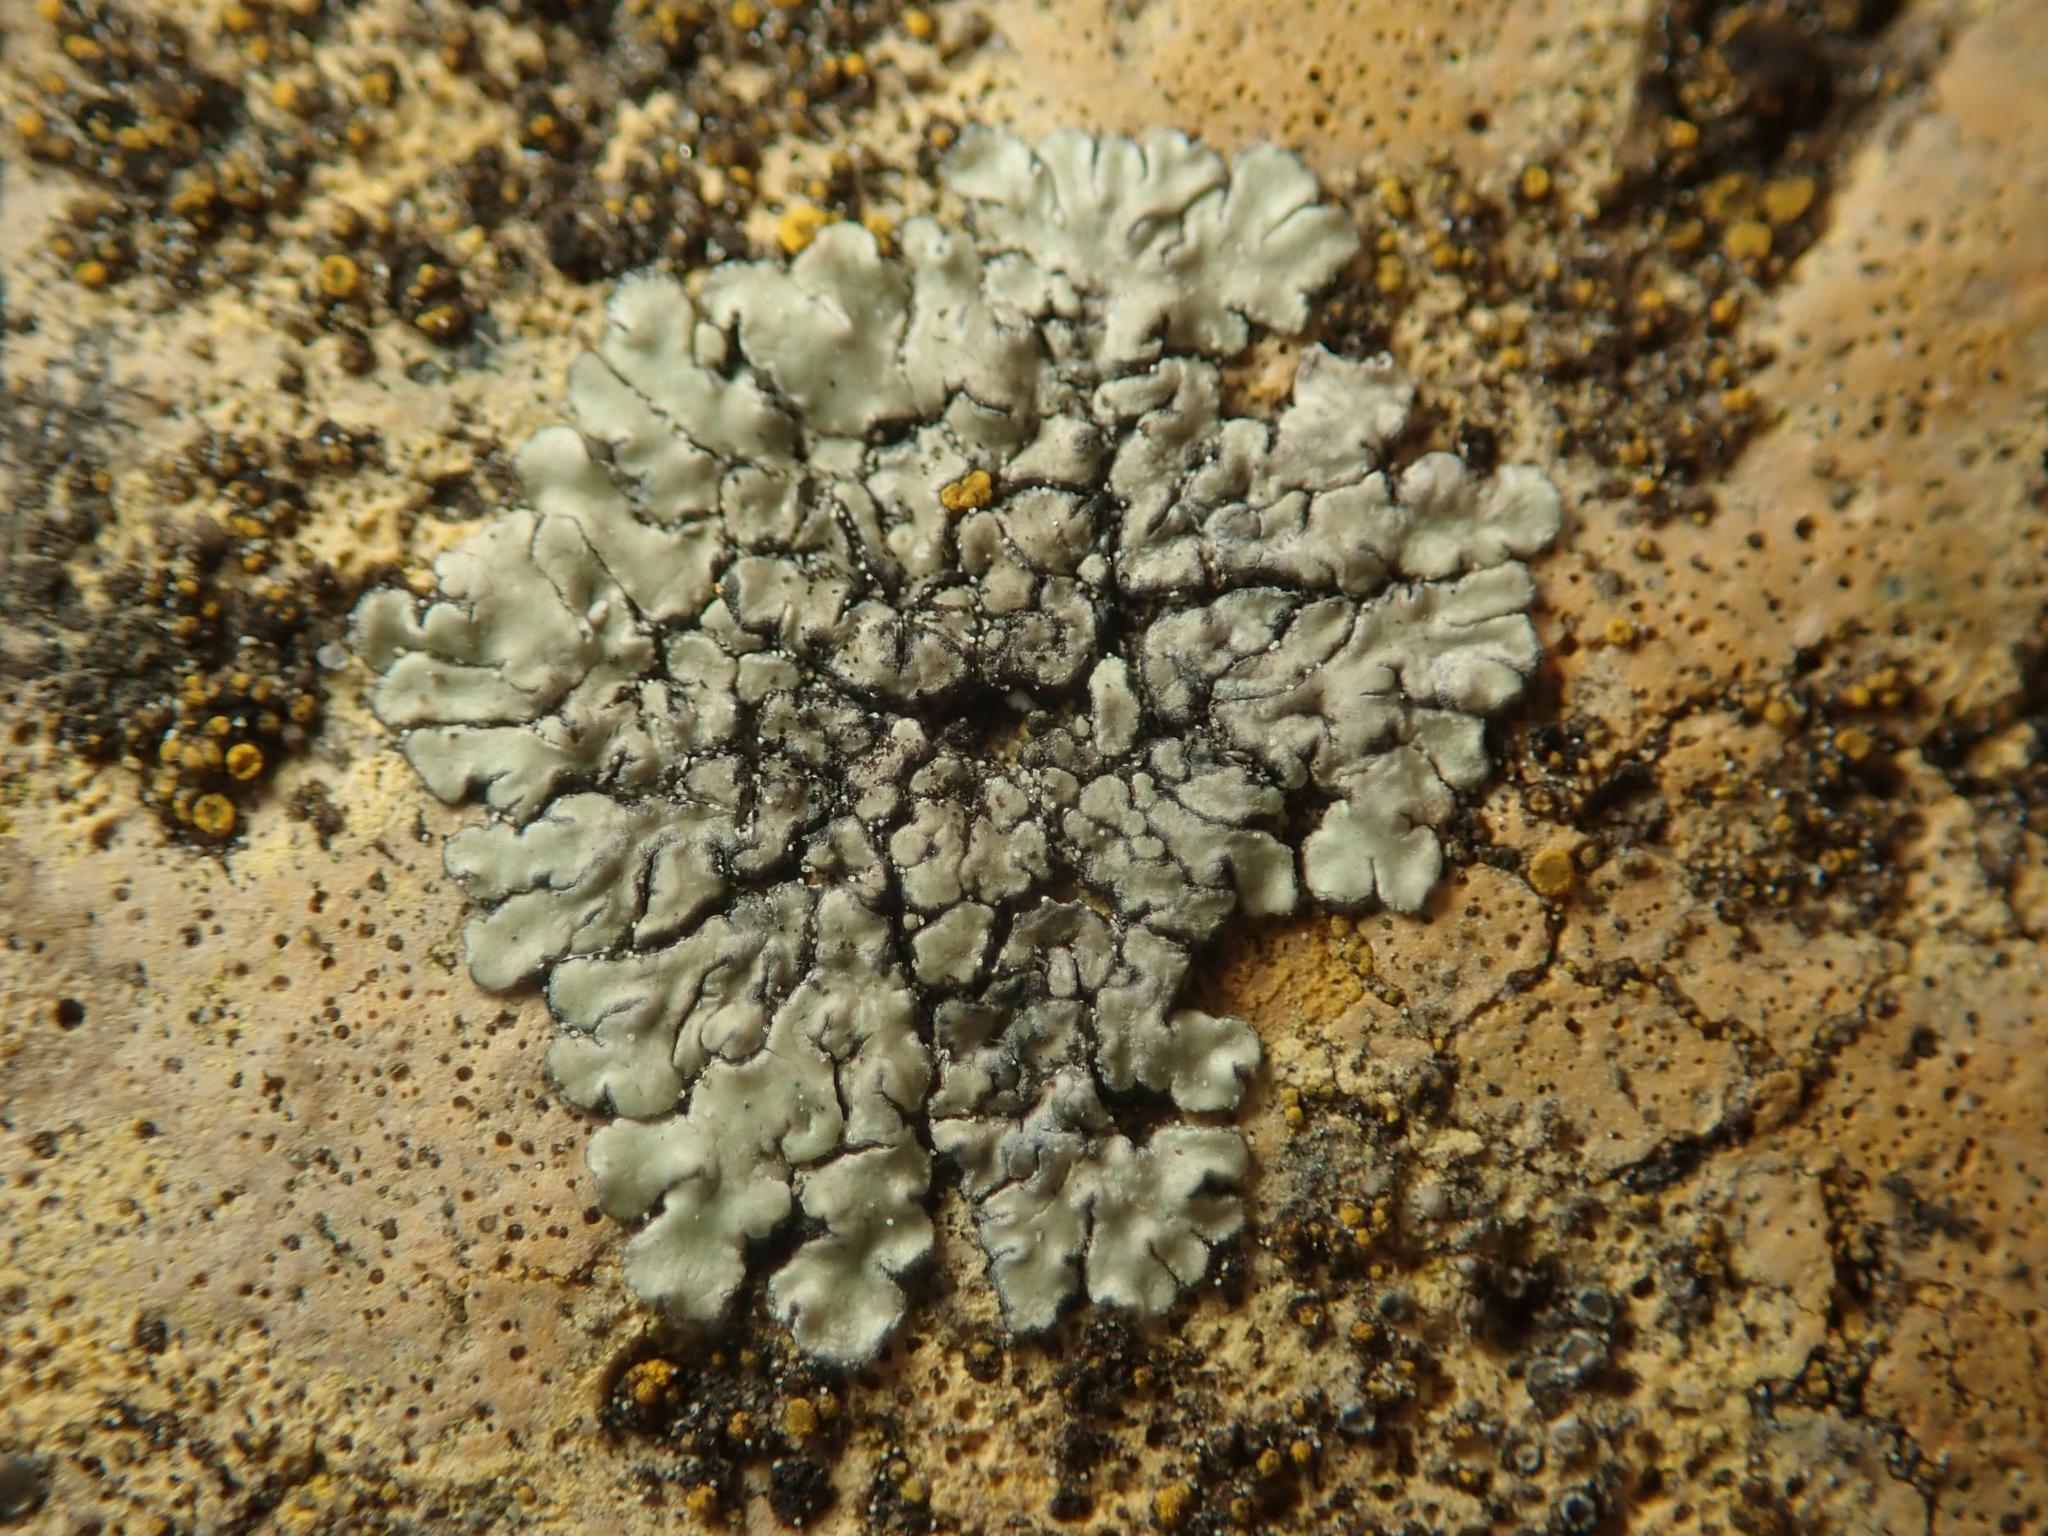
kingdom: Fungi
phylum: Ascomycota
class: Lecanoromycetes
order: Lecanorales
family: Lecanoraceae
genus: Protoparmeliopsis
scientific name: Protoparmeliopsis muralis
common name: Stonewall rim lichen
